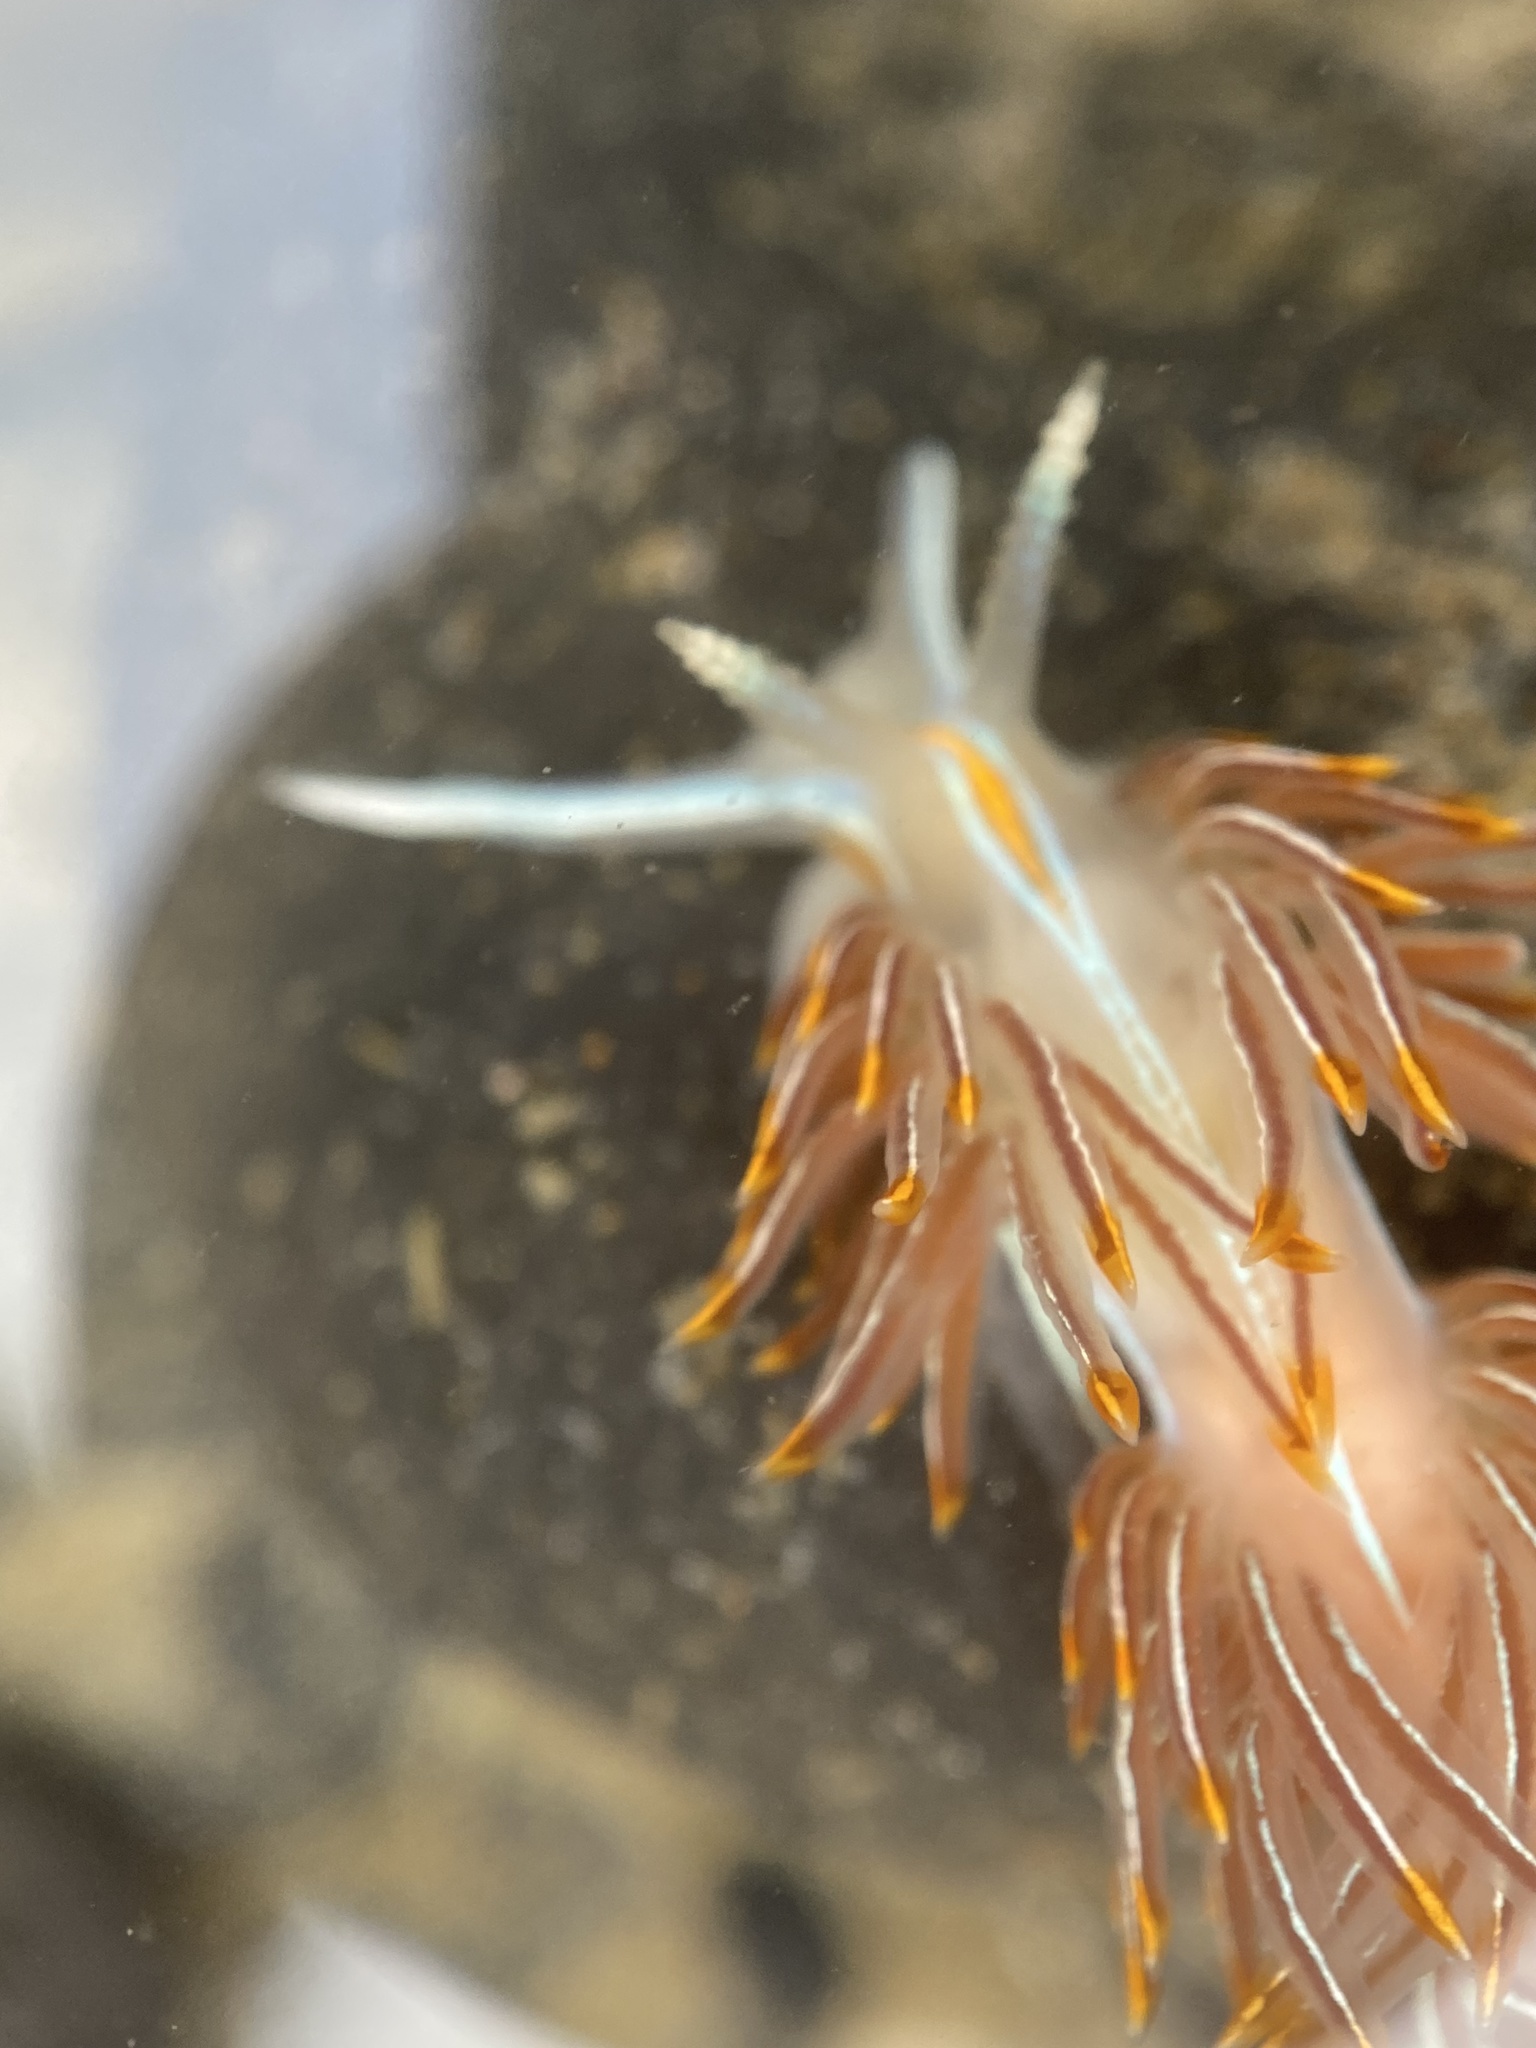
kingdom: Animalia
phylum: Mollusca
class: Gastropoda
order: Nudibranchia
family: Myrrhinidae
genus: Hermissenda
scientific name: Hermissenda crassicornis
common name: Hermissenda
